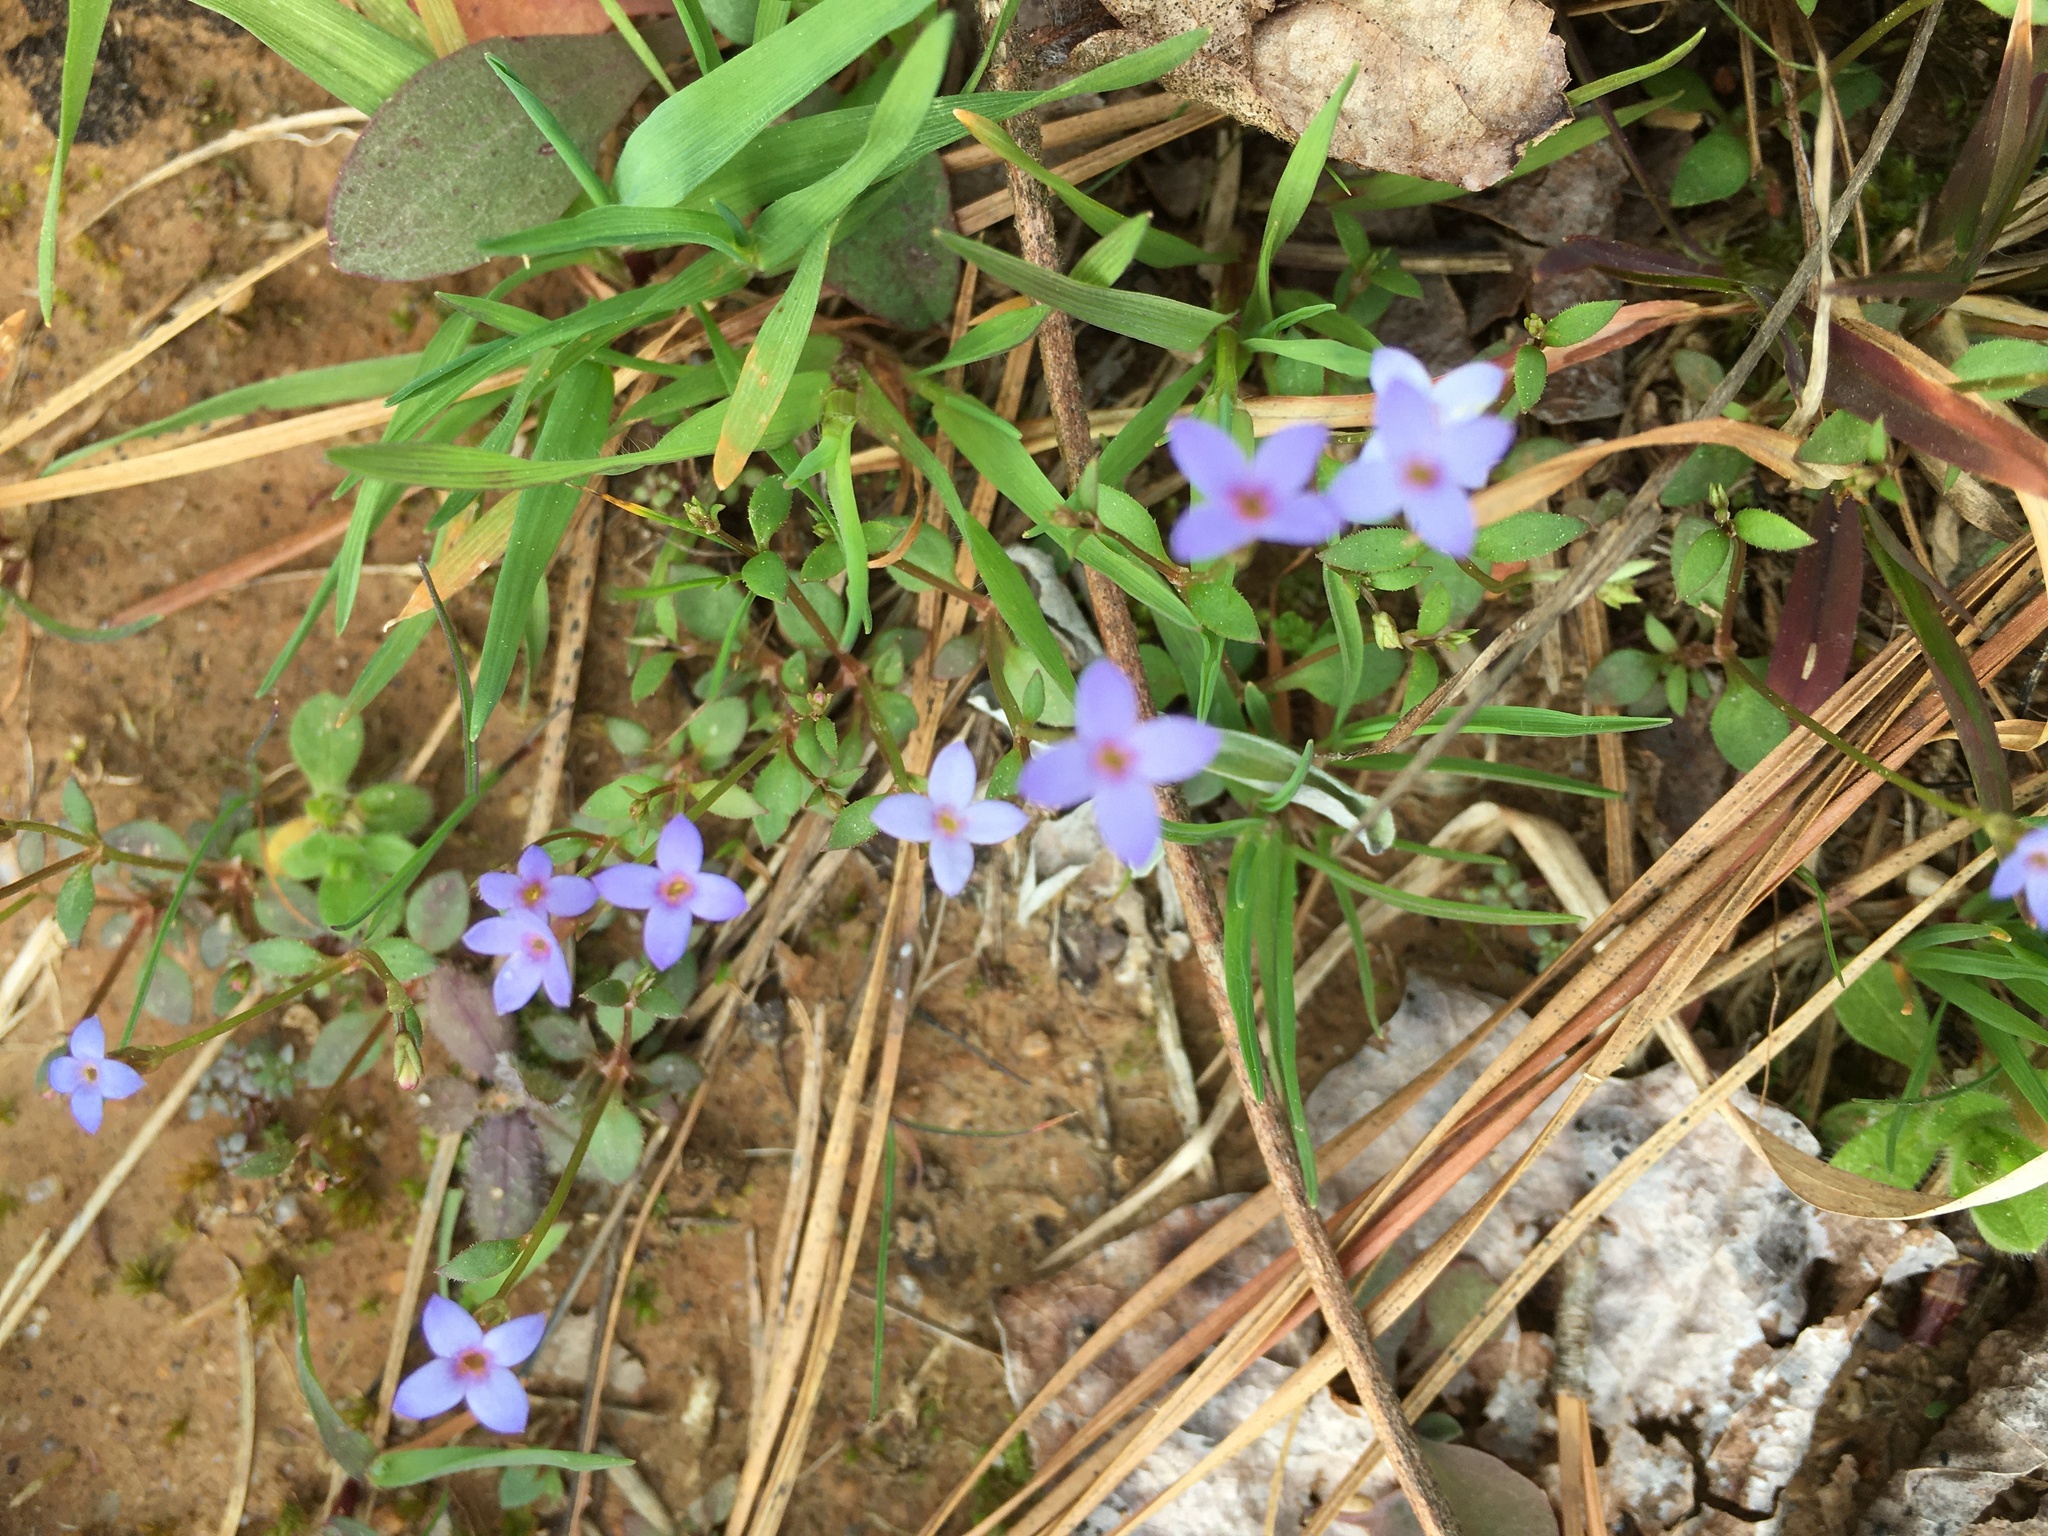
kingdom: Plantae
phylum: Tracheophyta
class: Magnoliopsida
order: Gentianales
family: Rubiaceae
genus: Houstonia
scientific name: Houstonia pusilla
